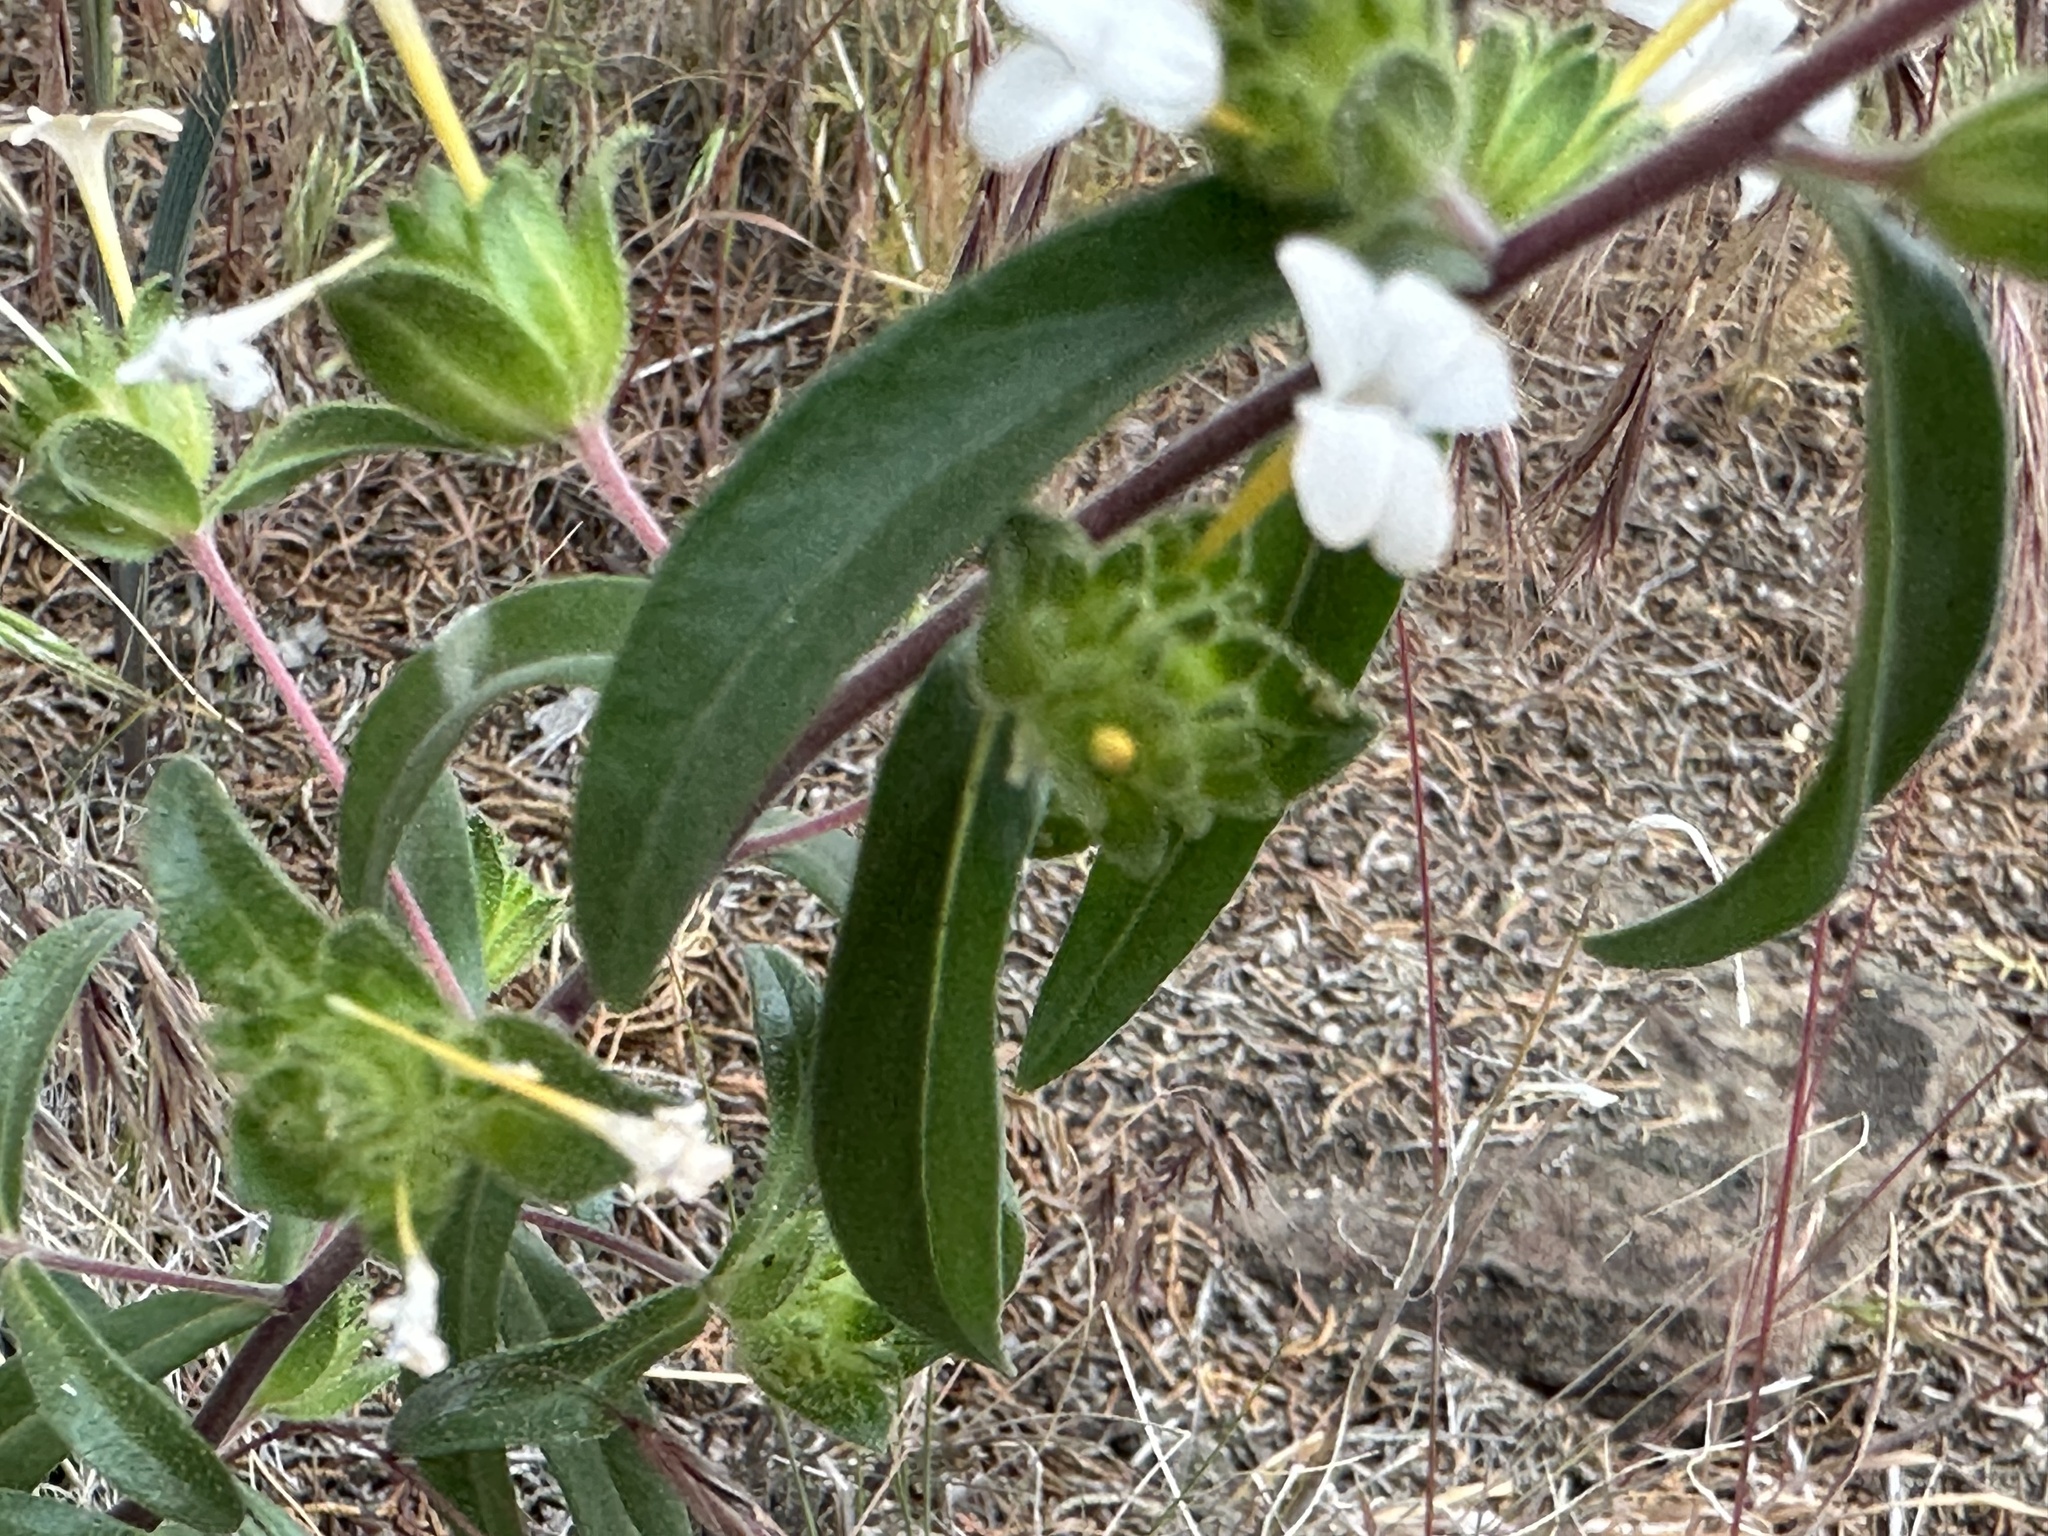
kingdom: Plantae
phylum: Tracheophyta
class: Magnoliopsida
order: Ericales
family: Polemoniaceae
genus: Collomia
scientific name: Collomia grandiflora
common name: California strawflower
